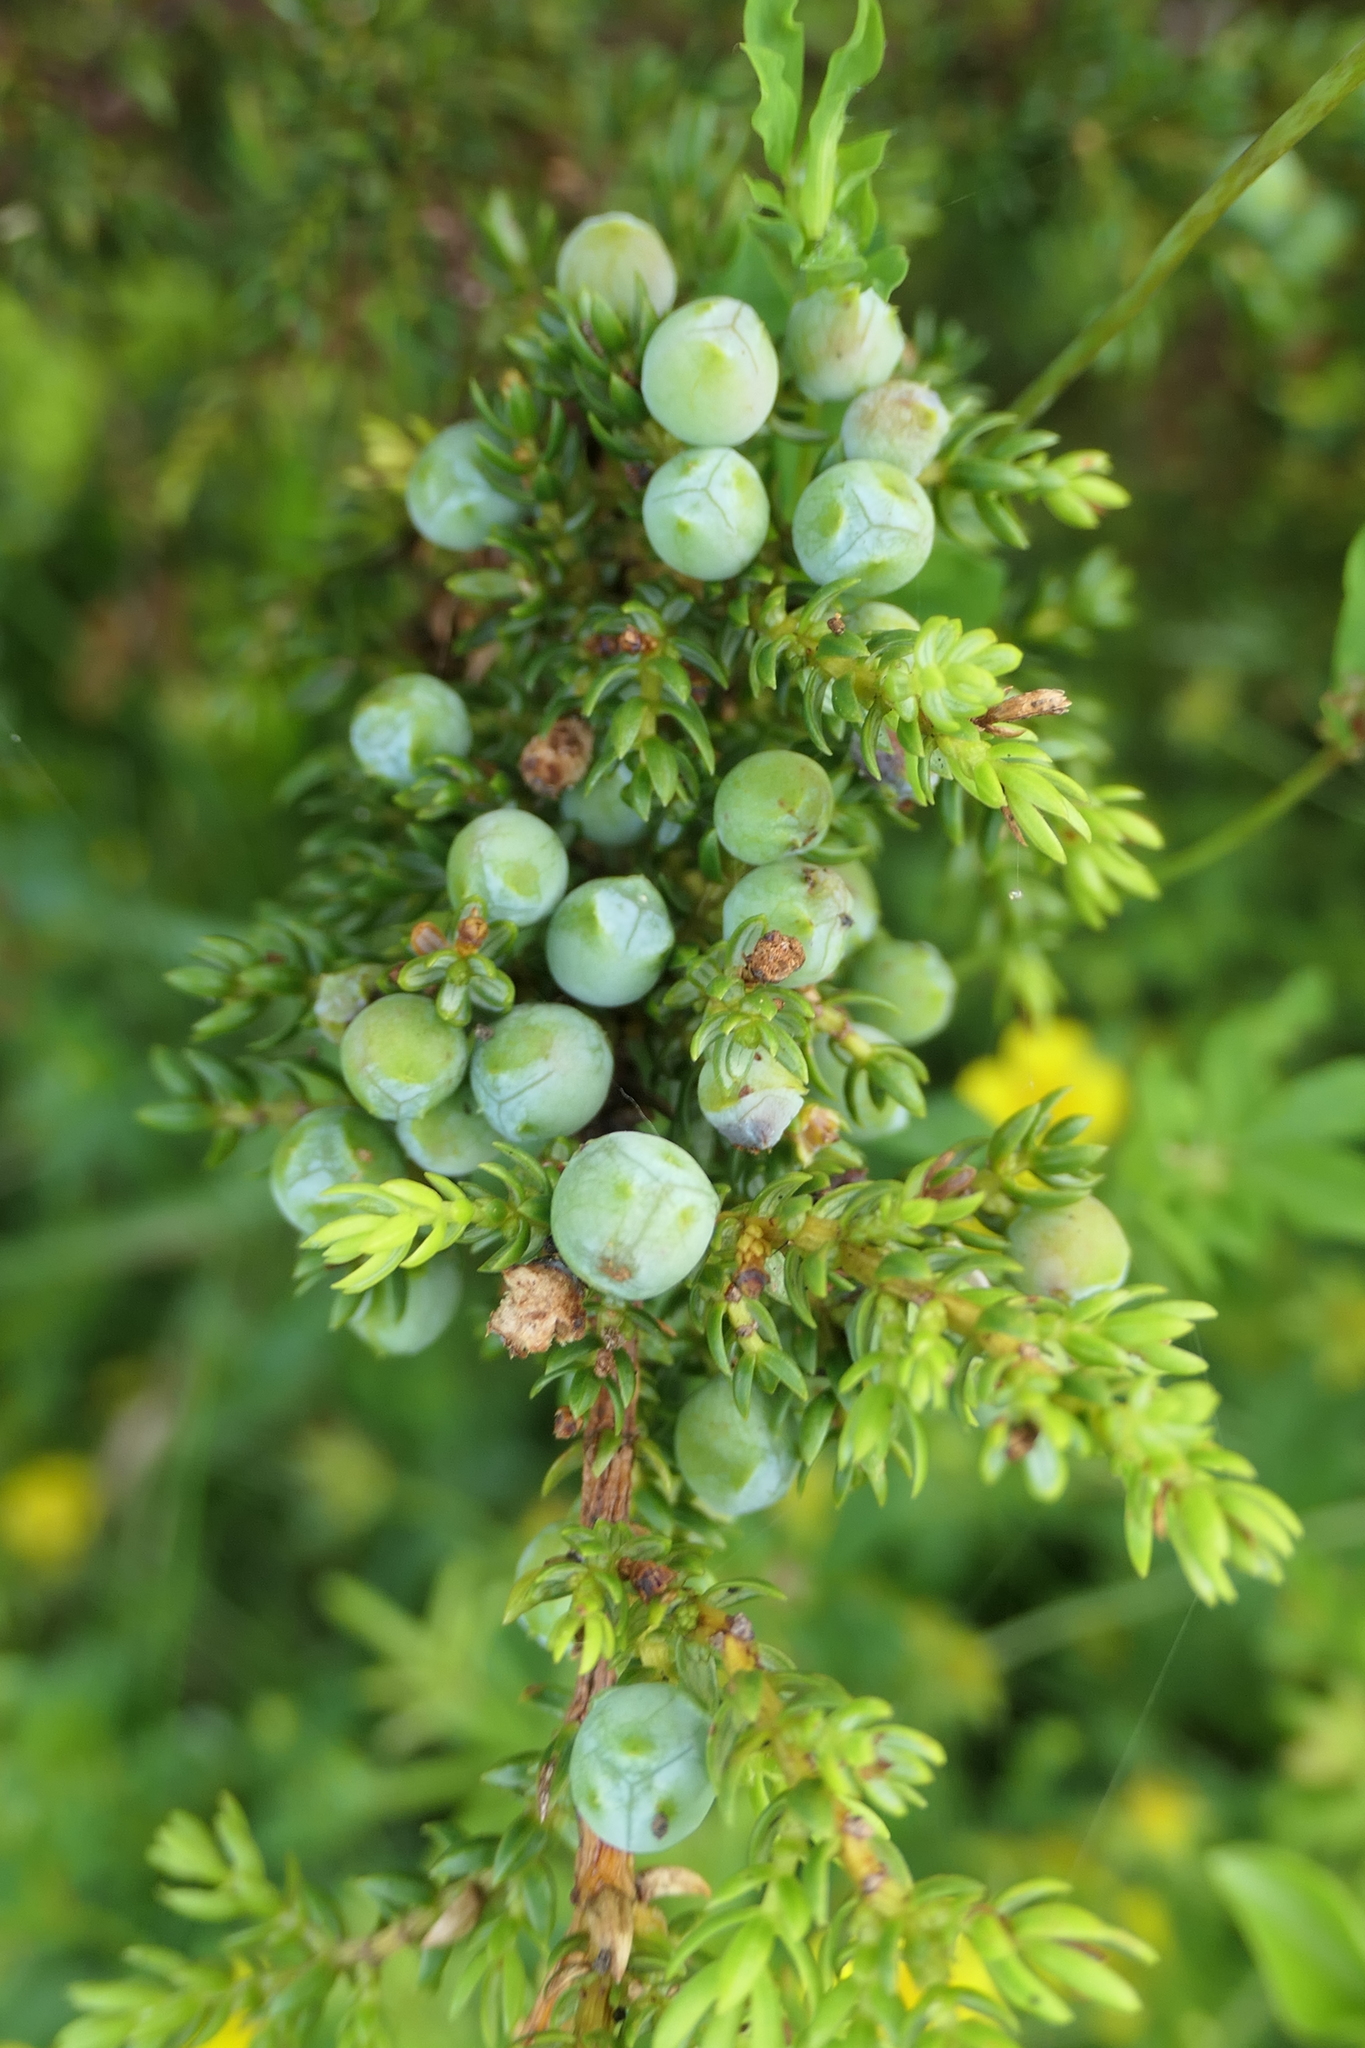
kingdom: Plantae
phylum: Tracheophyta
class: Pinopsida
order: Pinales
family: Cupressaceae
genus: Juniperus
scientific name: Juniperus brevifolia
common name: Azores juniper
